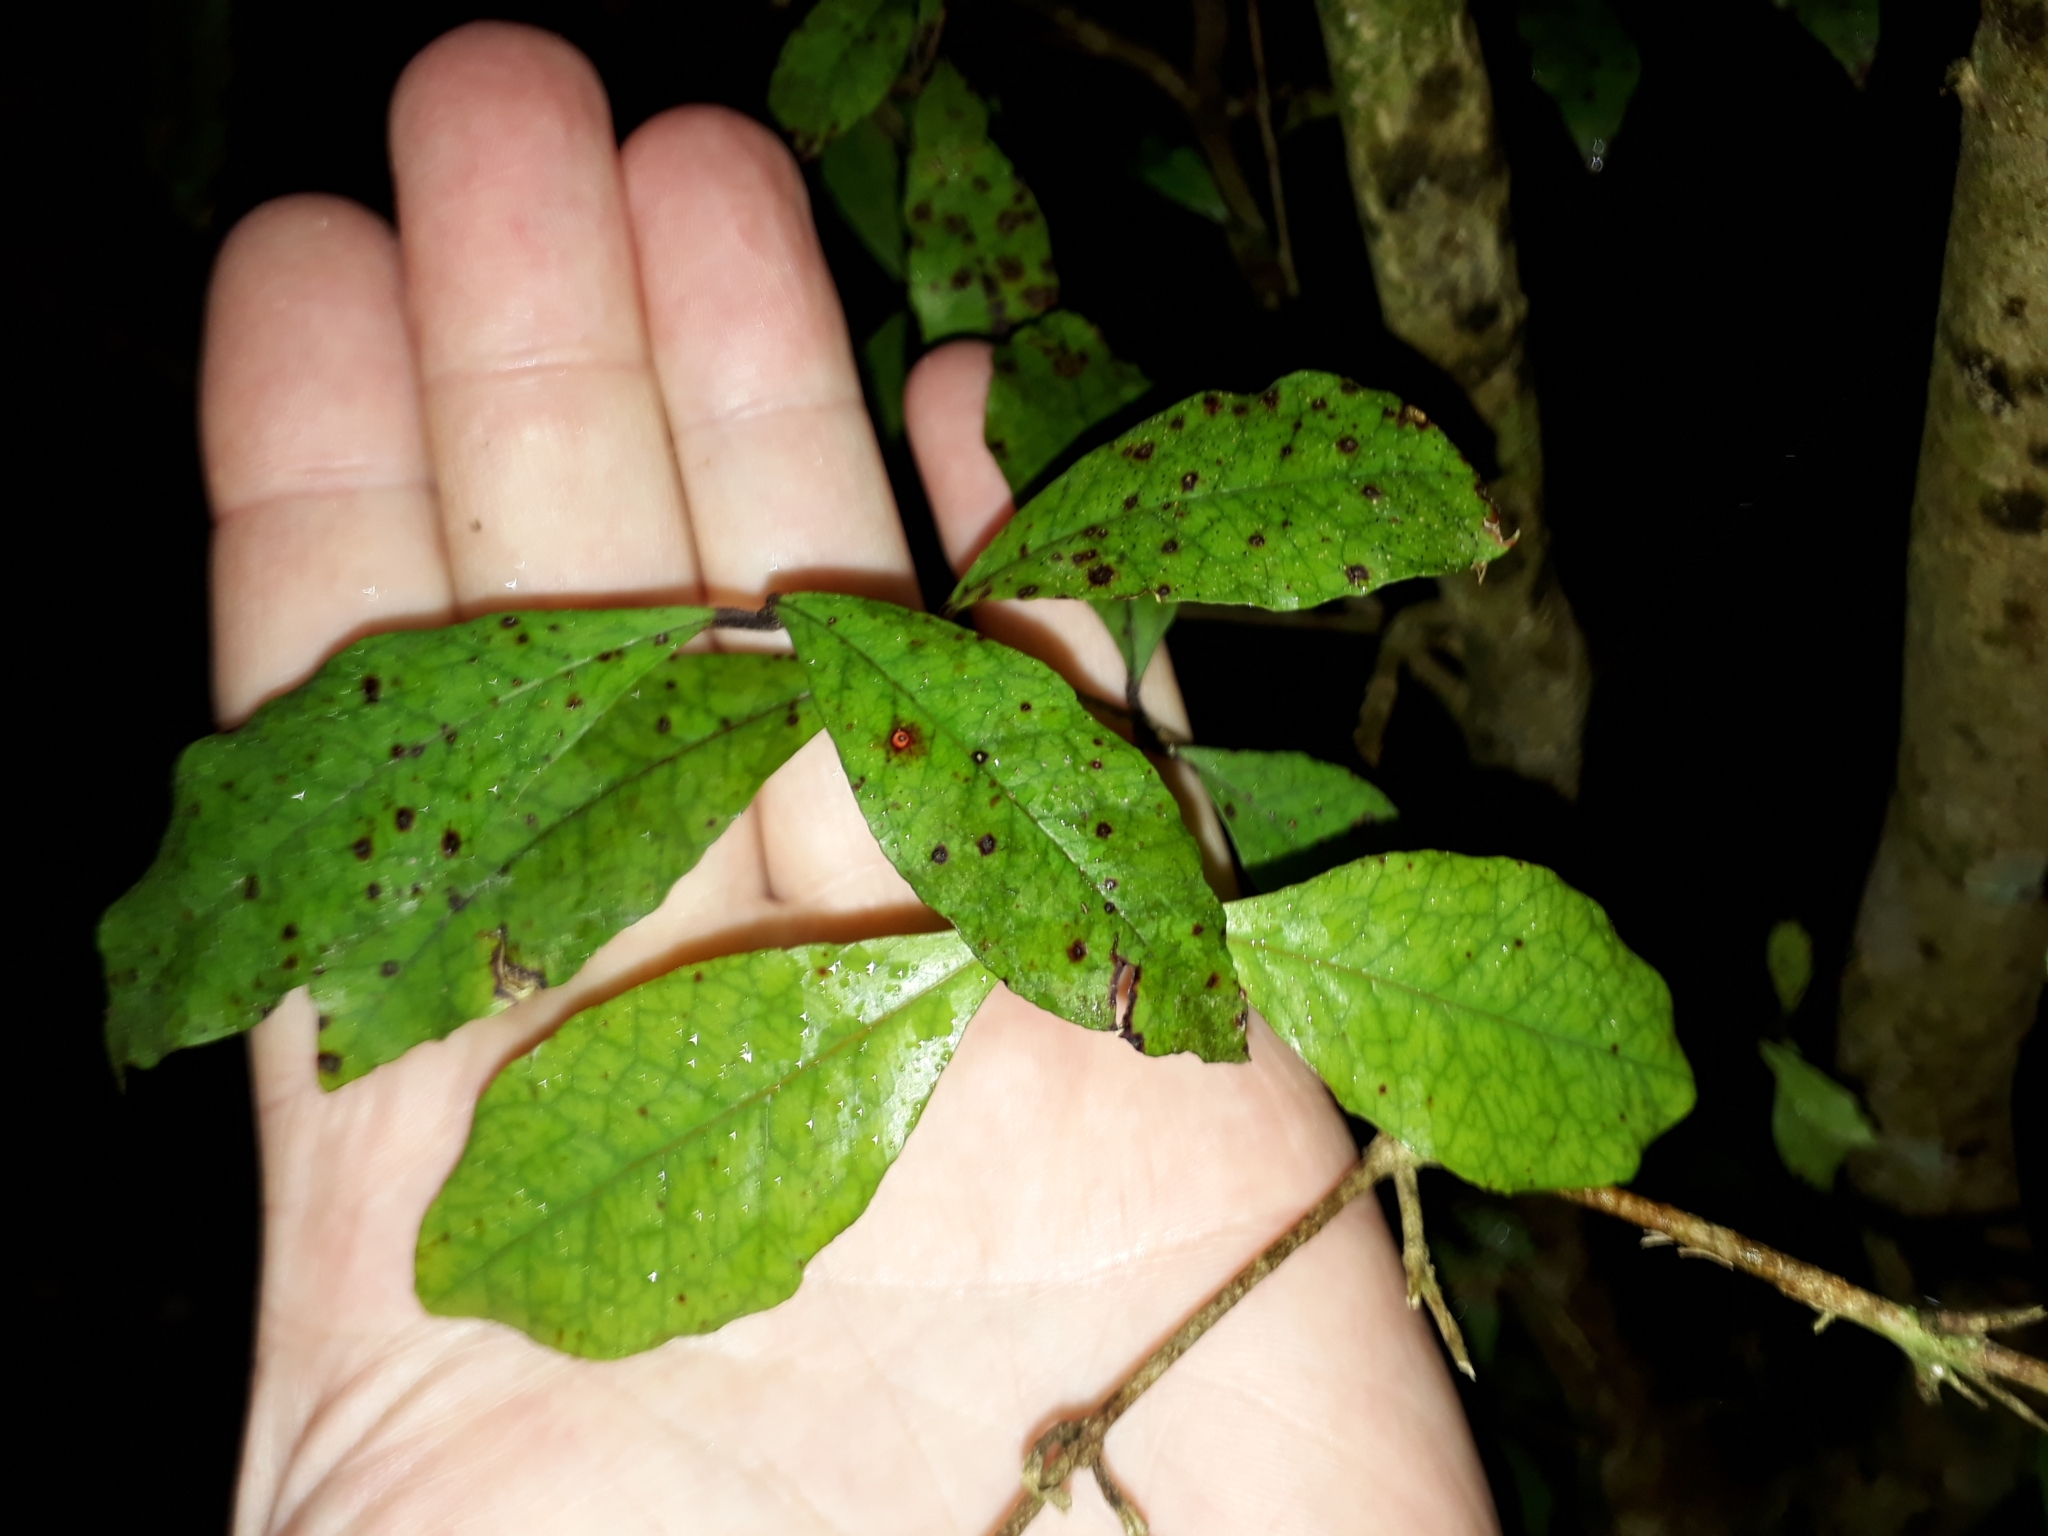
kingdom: Plantae
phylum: Tracheophyta
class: Magnoliopsida
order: Myrtales
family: Myrtaceae
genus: Syzygium
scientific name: Syzygium maire
